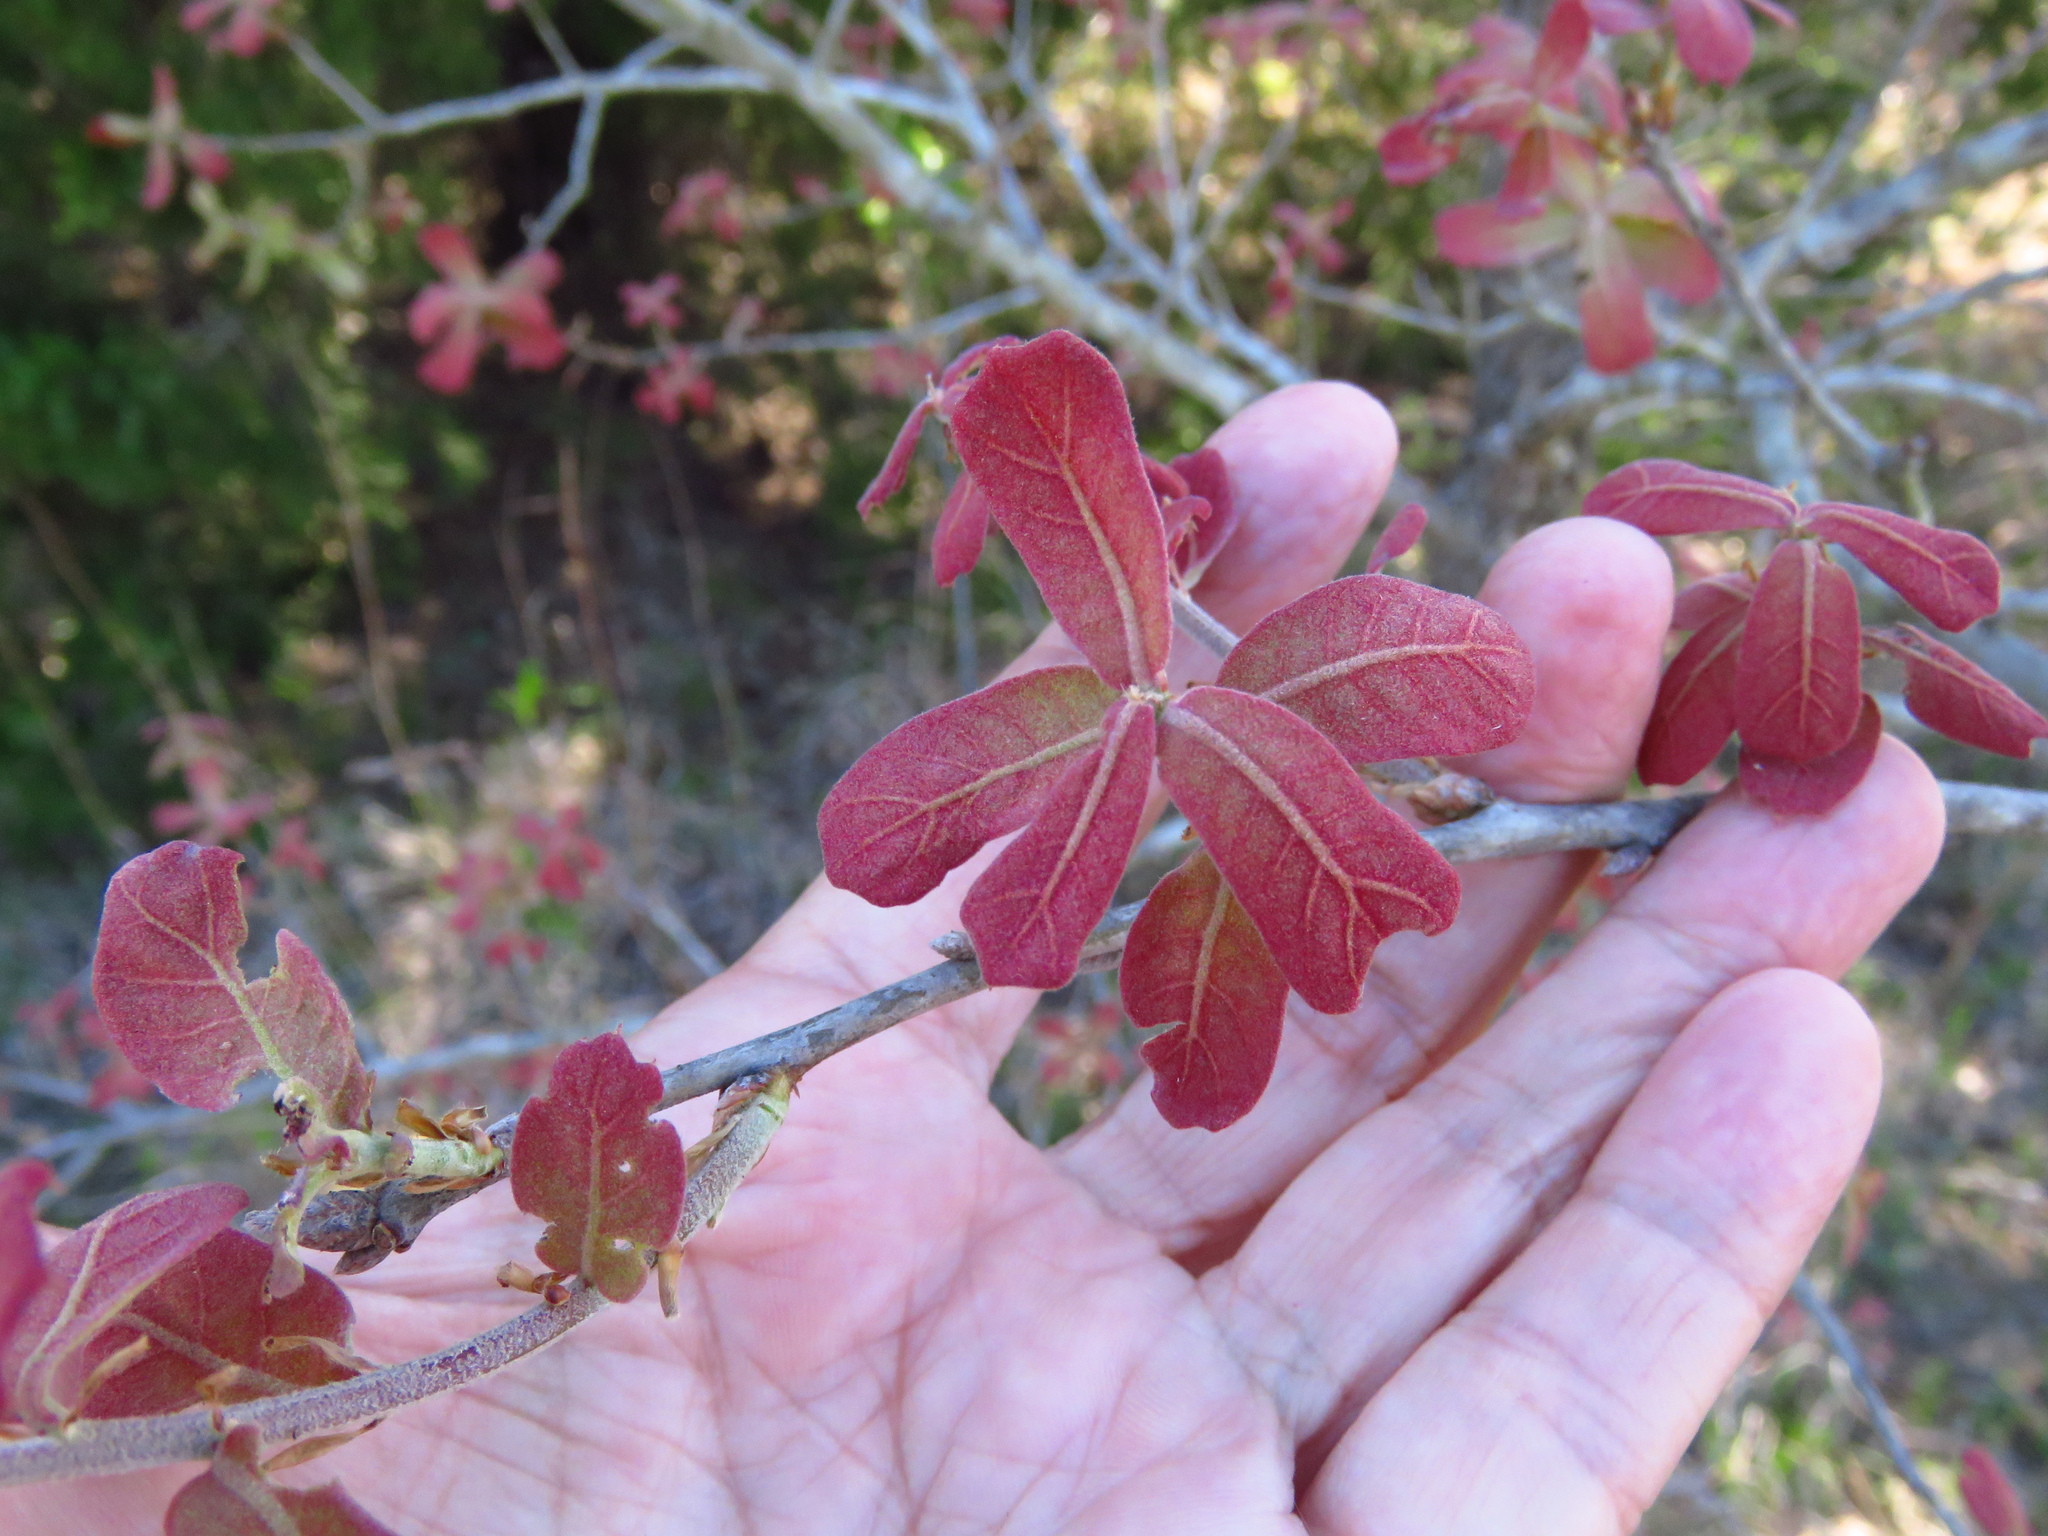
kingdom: Plantae
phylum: Tracheophyta
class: Magnoliopsida
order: Fagales
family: Fagaceae
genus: Quercus
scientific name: Quercus marilandica
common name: Blackjack oak
